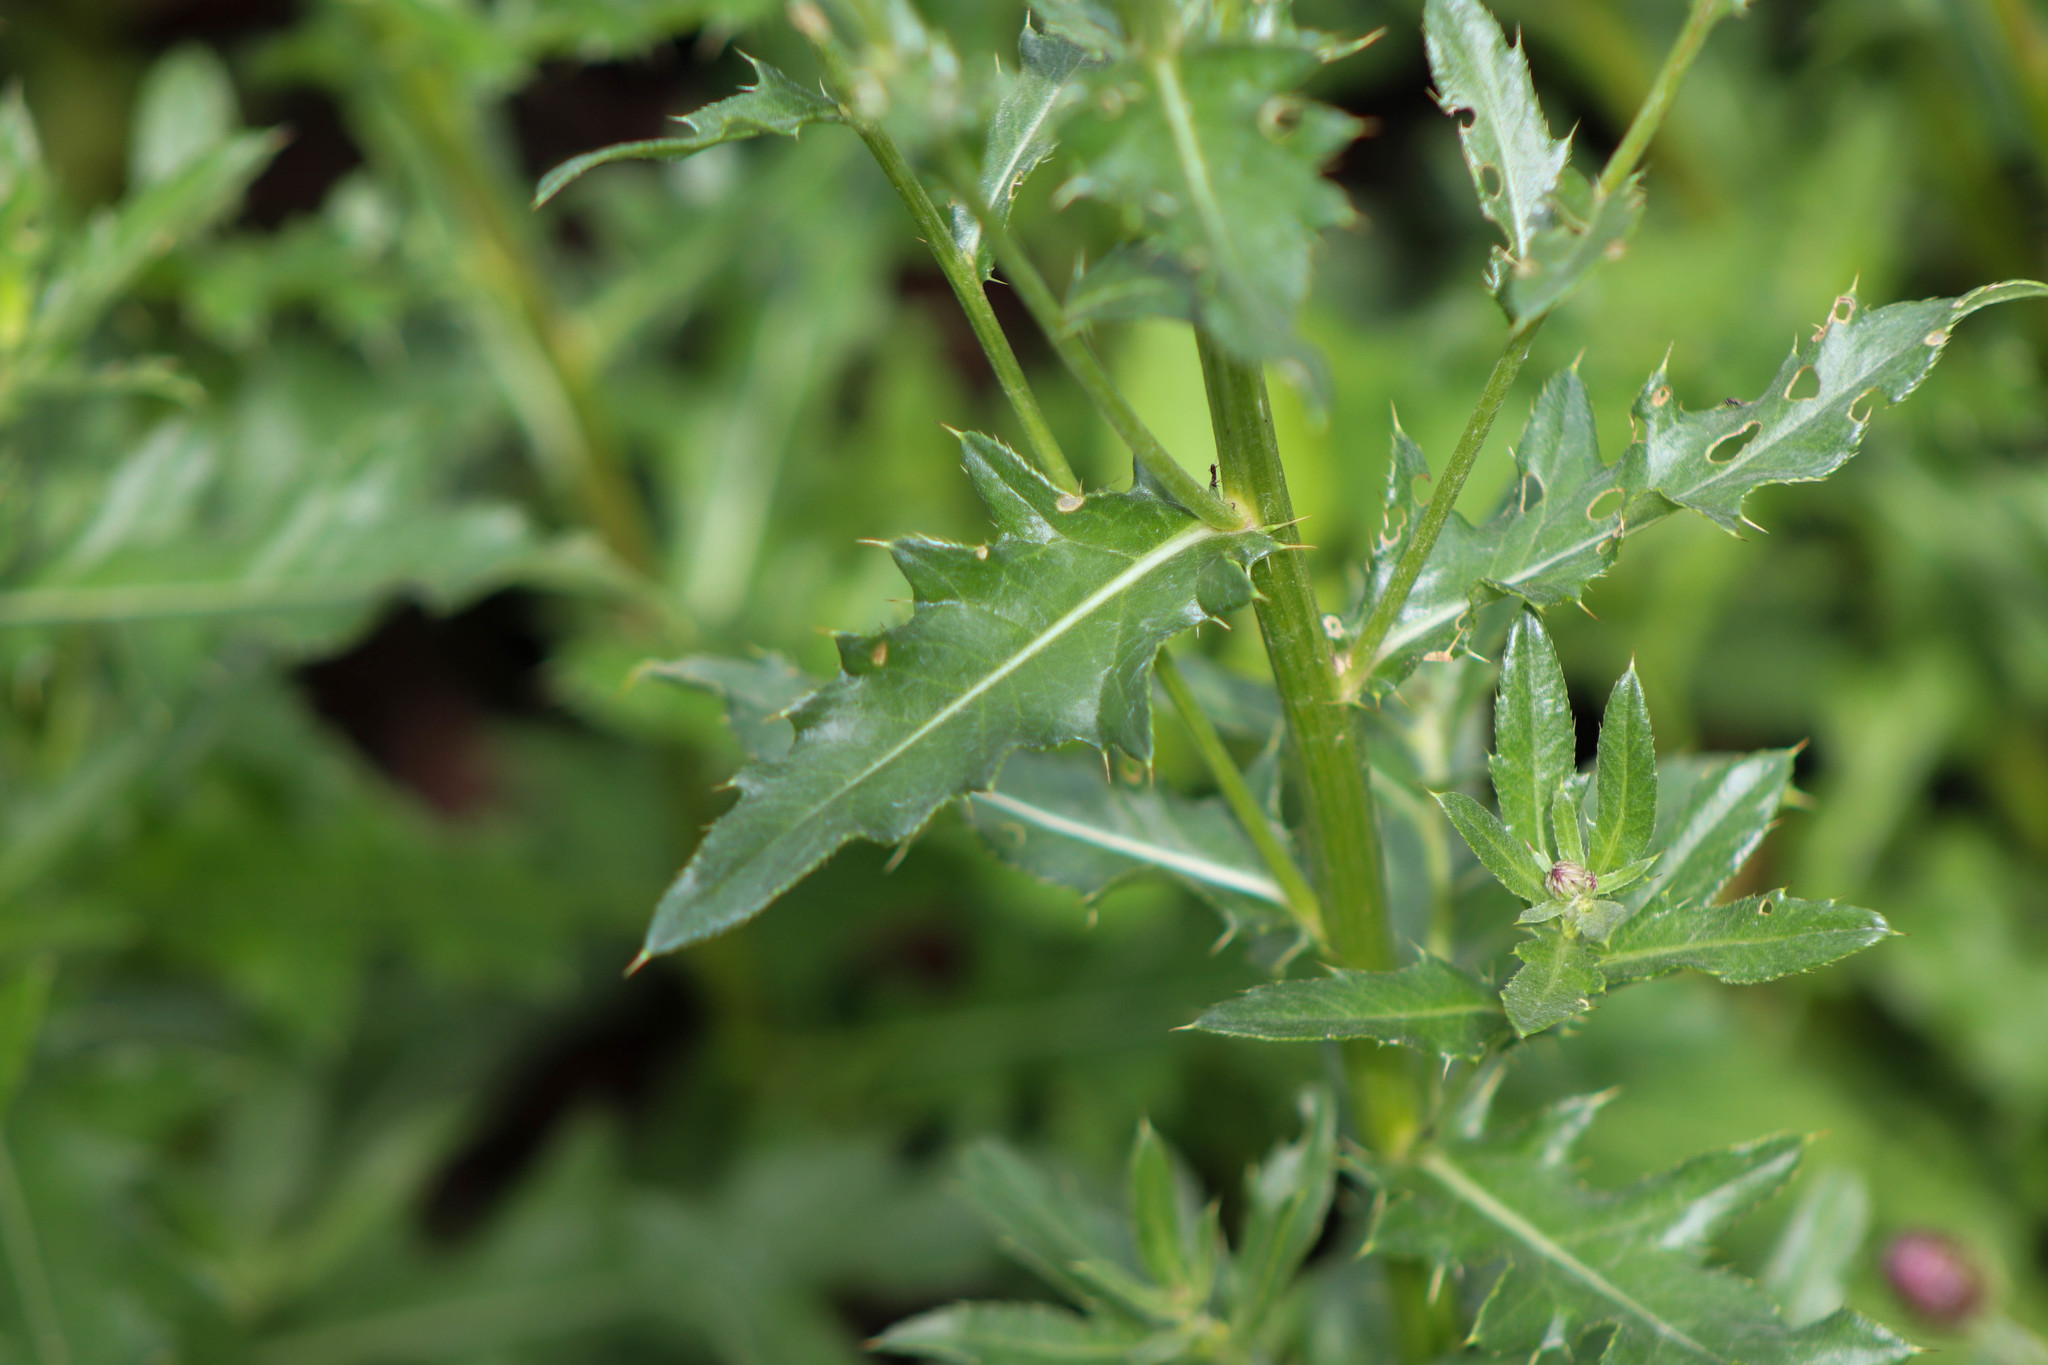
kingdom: Plantae
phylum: Tracheophyta
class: Magnoliopsida
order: Asterales
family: Asteraceae
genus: Cirsium
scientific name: Cirsium arvense
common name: Creeping thistle
